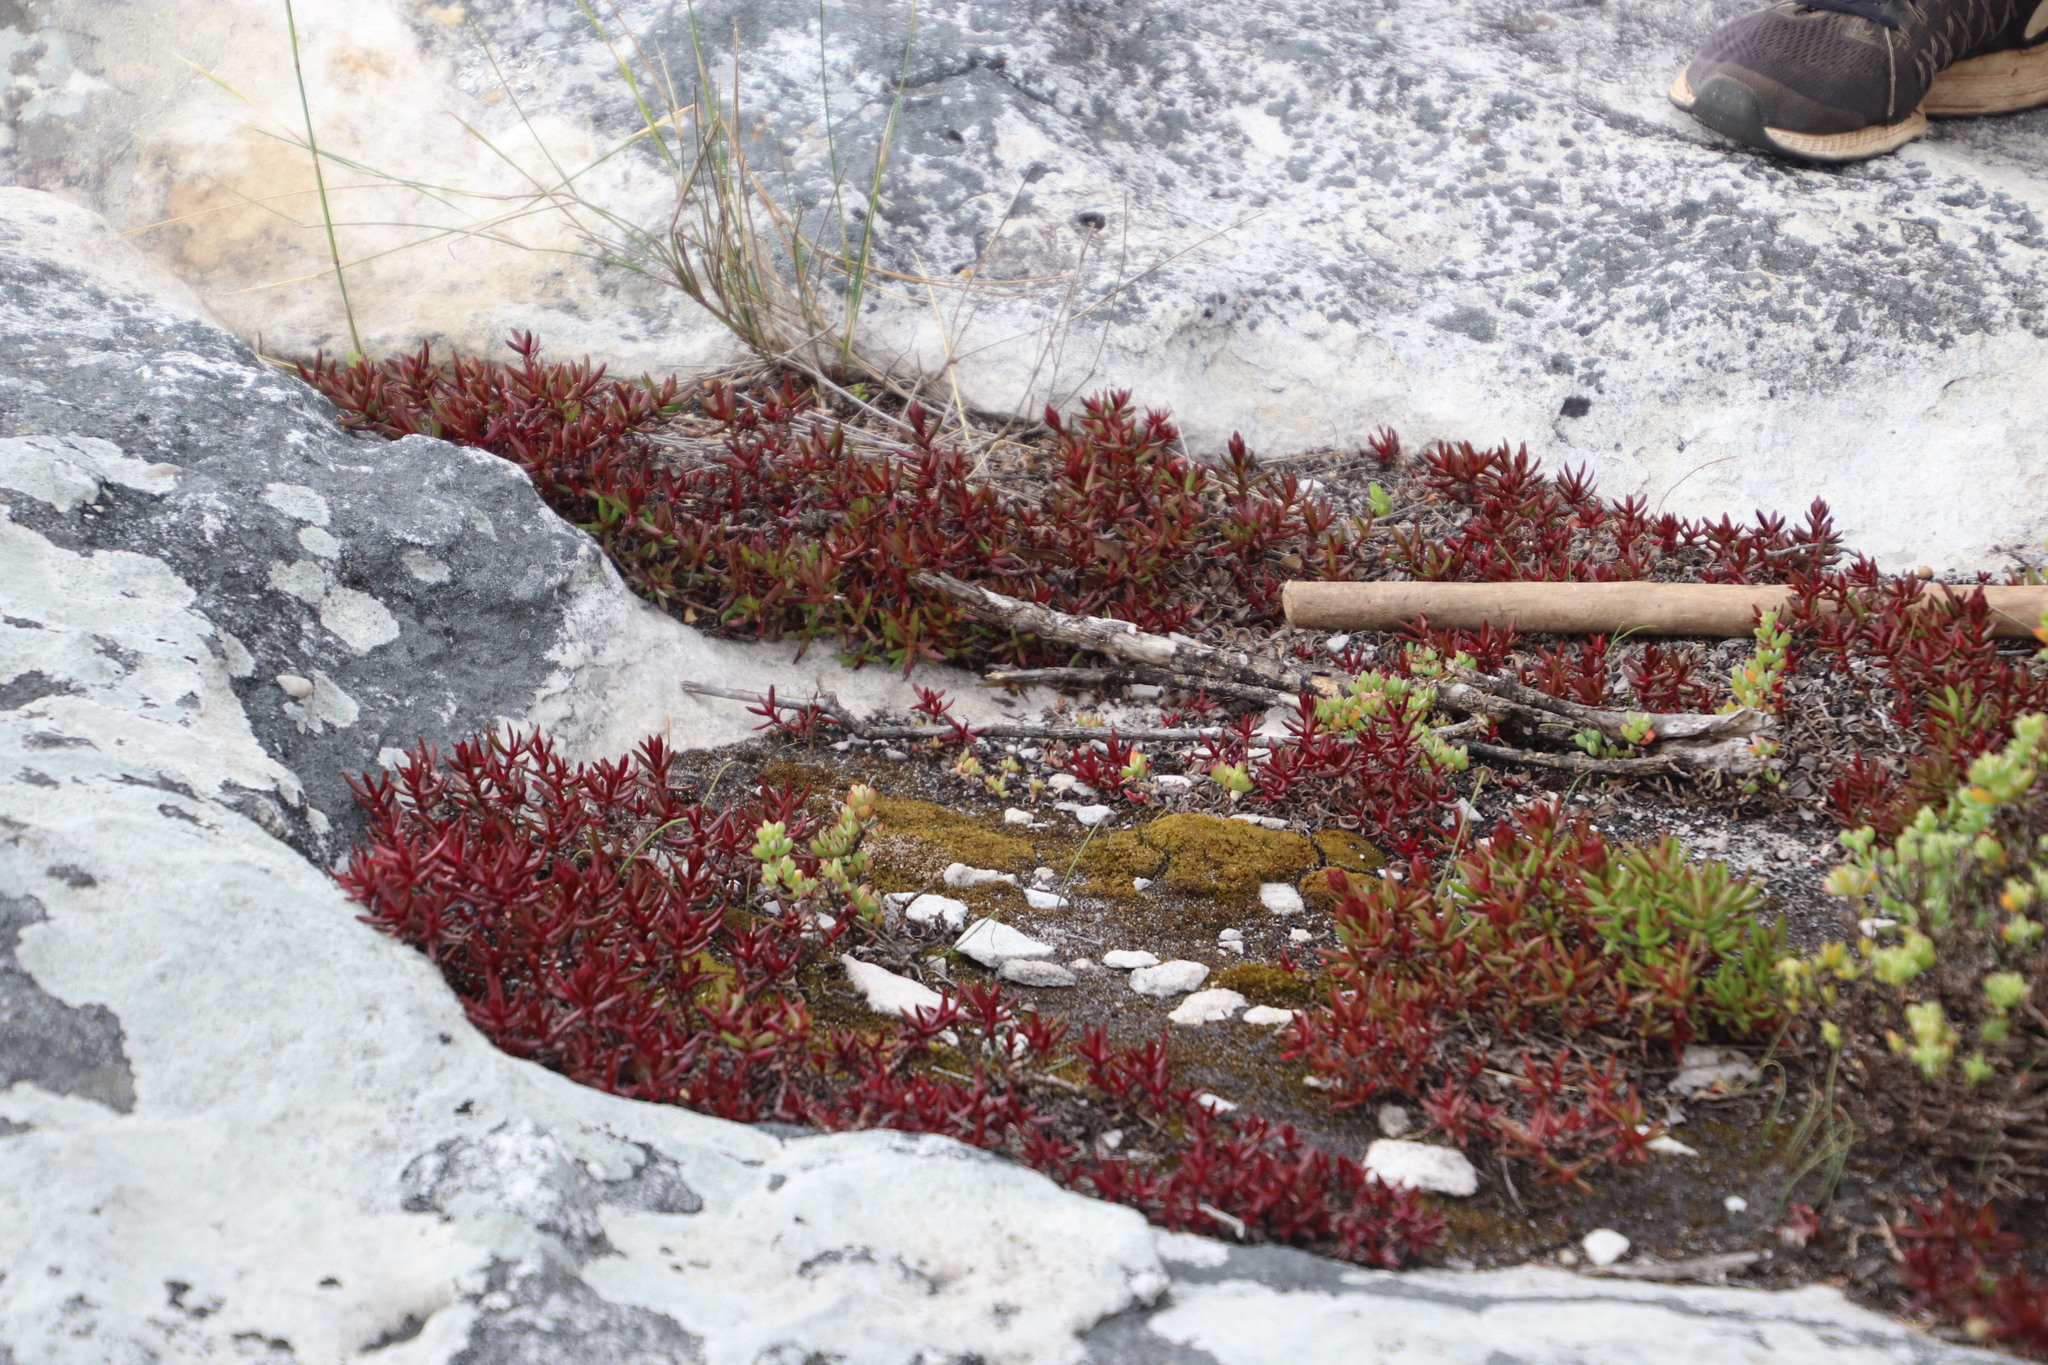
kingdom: Plantae
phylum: Tracheophyta
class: Magnoliopsida
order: Saxifragales
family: Crassulaceae
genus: Crassula
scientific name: Crassula obtusa
